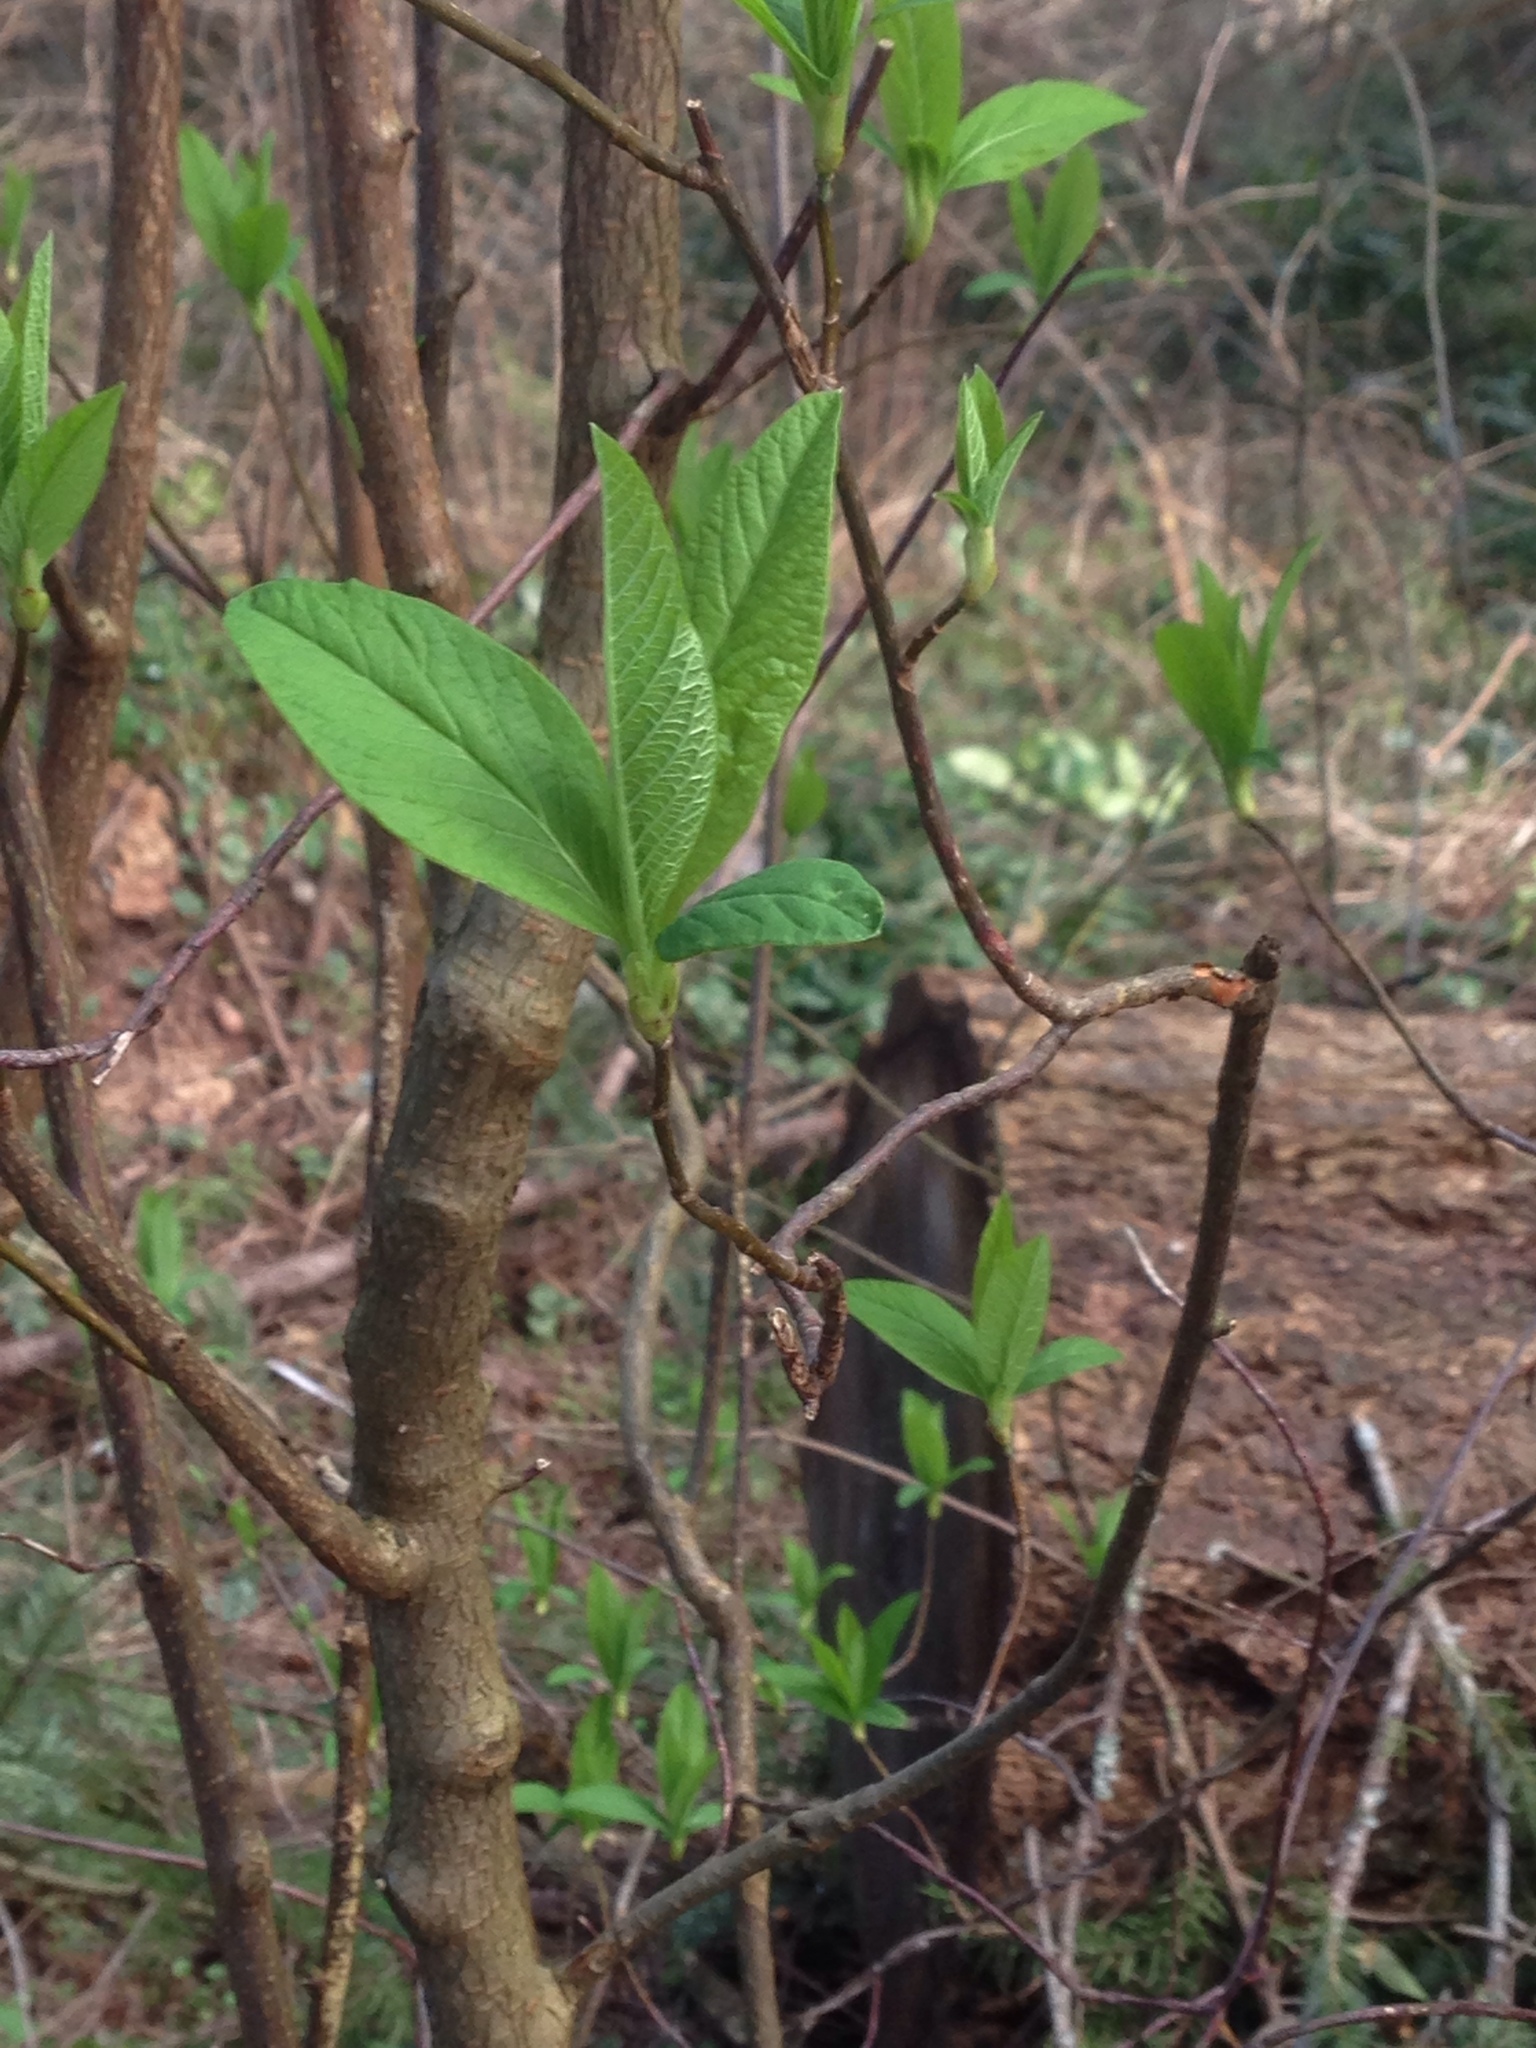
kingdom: Plantae
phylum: Tracheophyta
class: Magnoliopsida
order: Rosales
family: Rosaceae
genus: Oemleria
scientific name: Oemleria cerasiformis
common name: Osoberry
